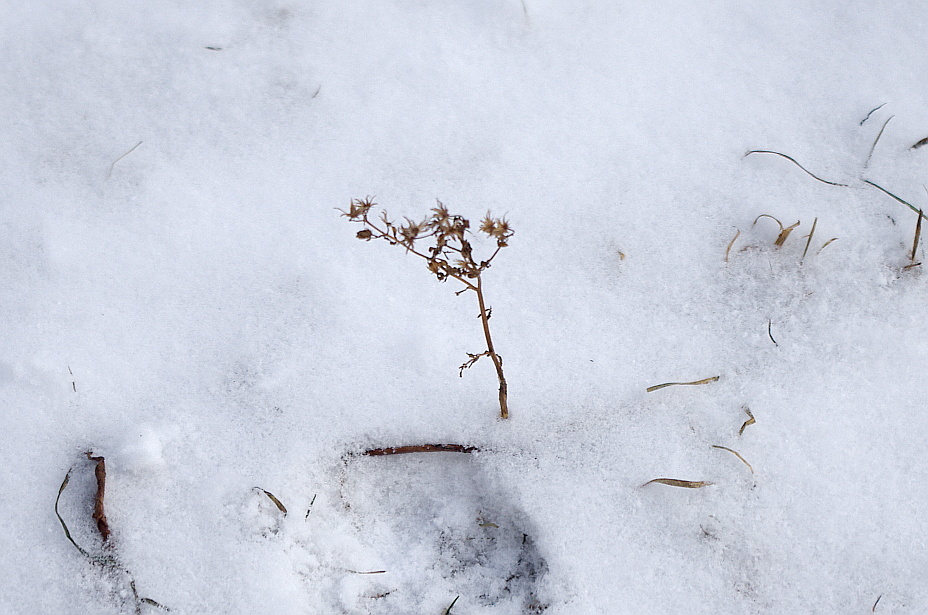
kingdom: Plantae
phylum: Tracheophyta
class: Magnoliopsida
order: Asterales
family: Asteraceae
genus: Erigeron
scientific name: Erigeron canadensis
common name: Canadian fleabane
